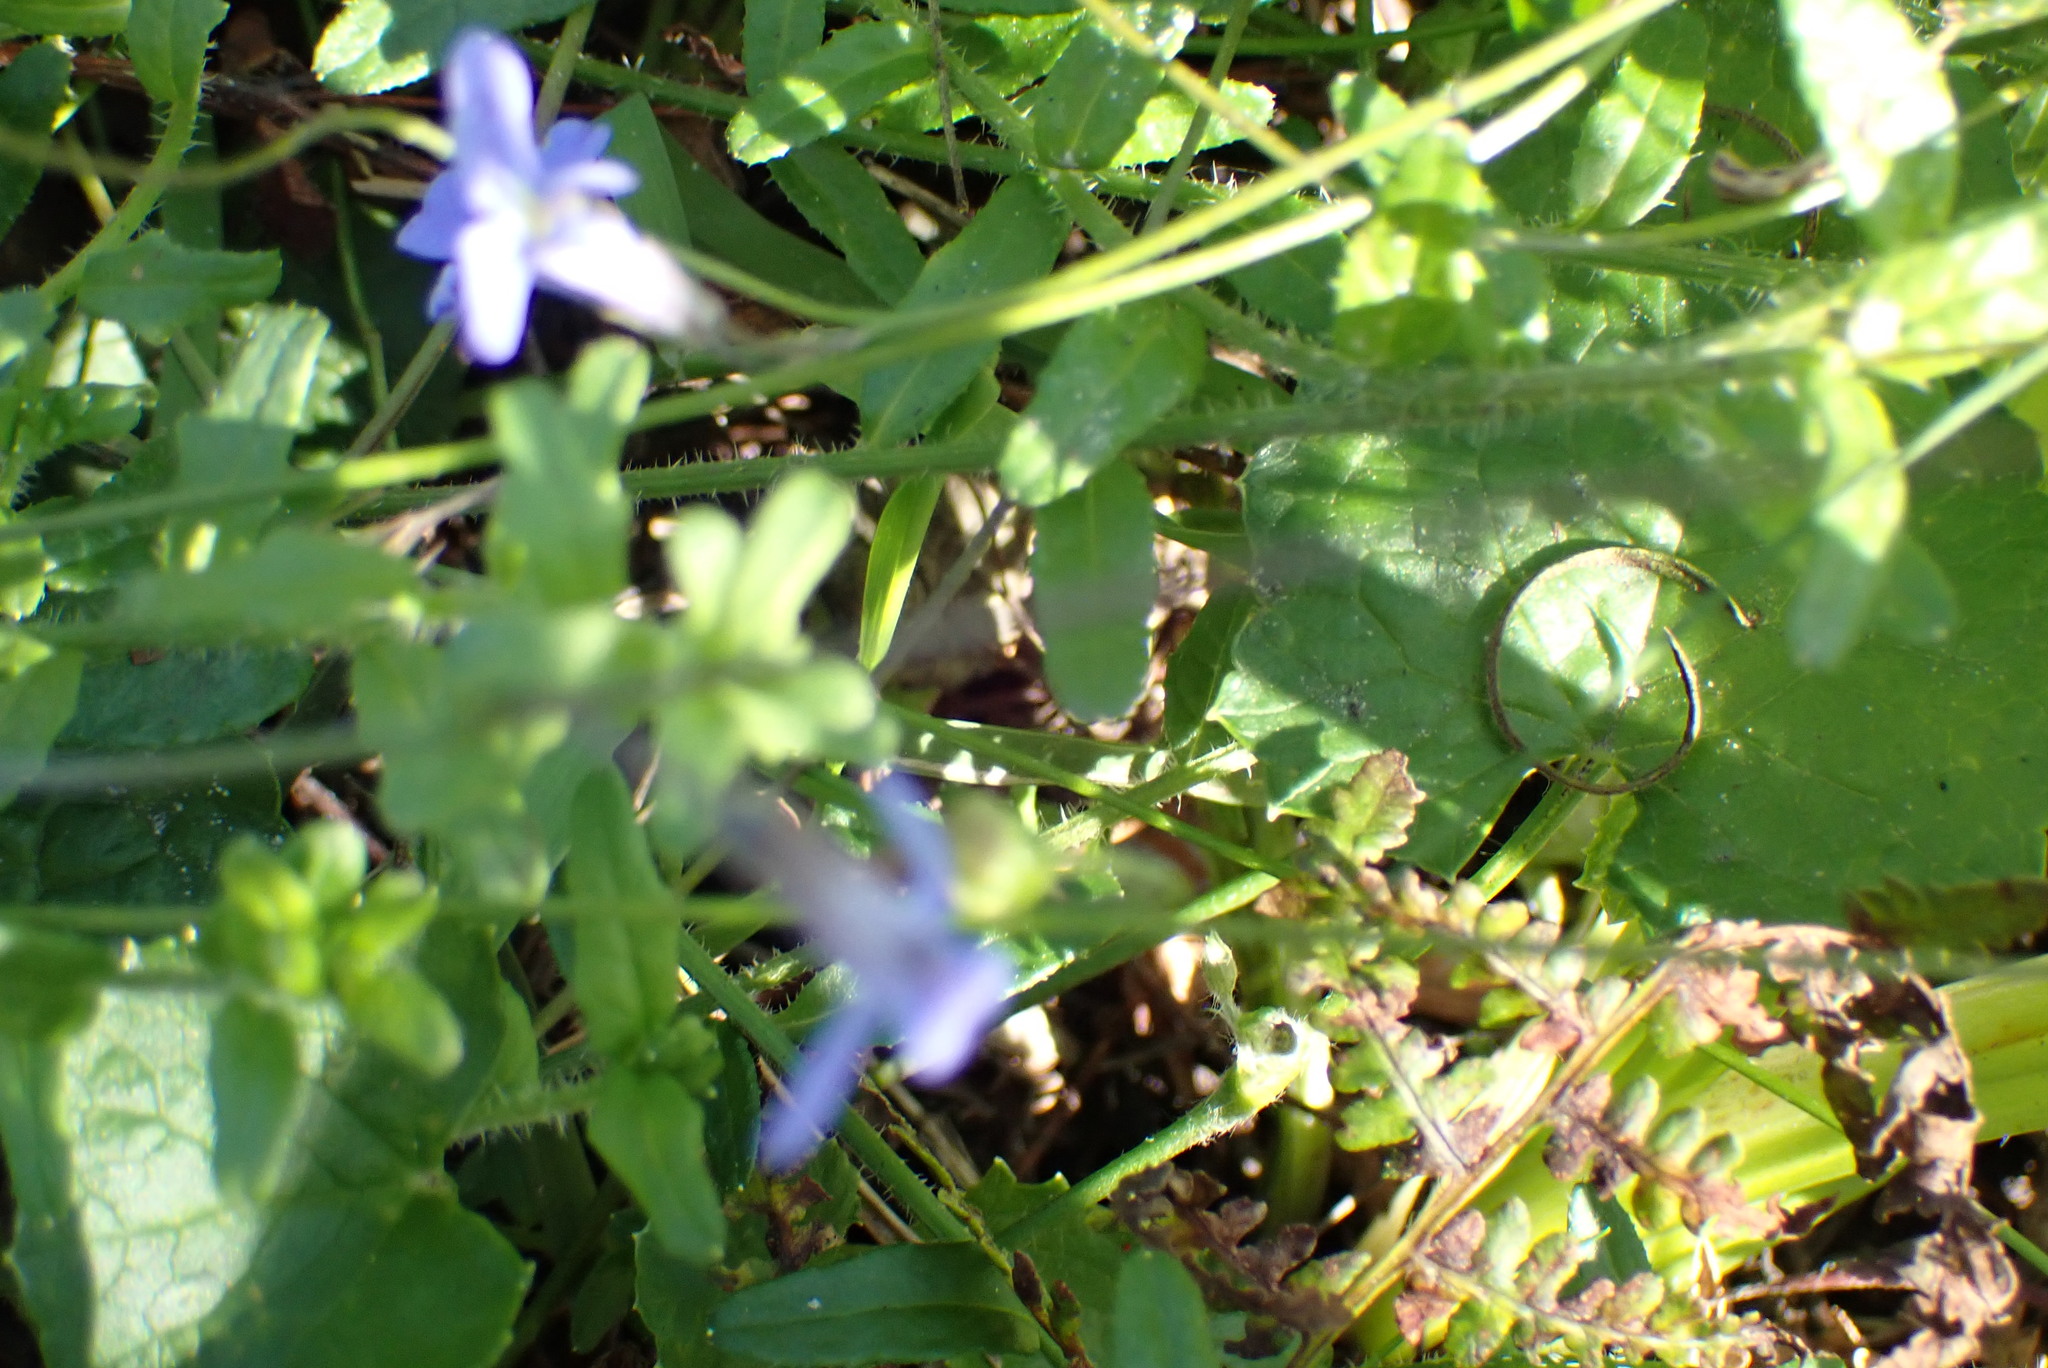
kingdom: Plantae
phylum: Tracheophyta
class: Magnoliopsida
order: Asterales
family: Campanulaceae
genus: Lobelia
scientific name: Lobelia neglecta
